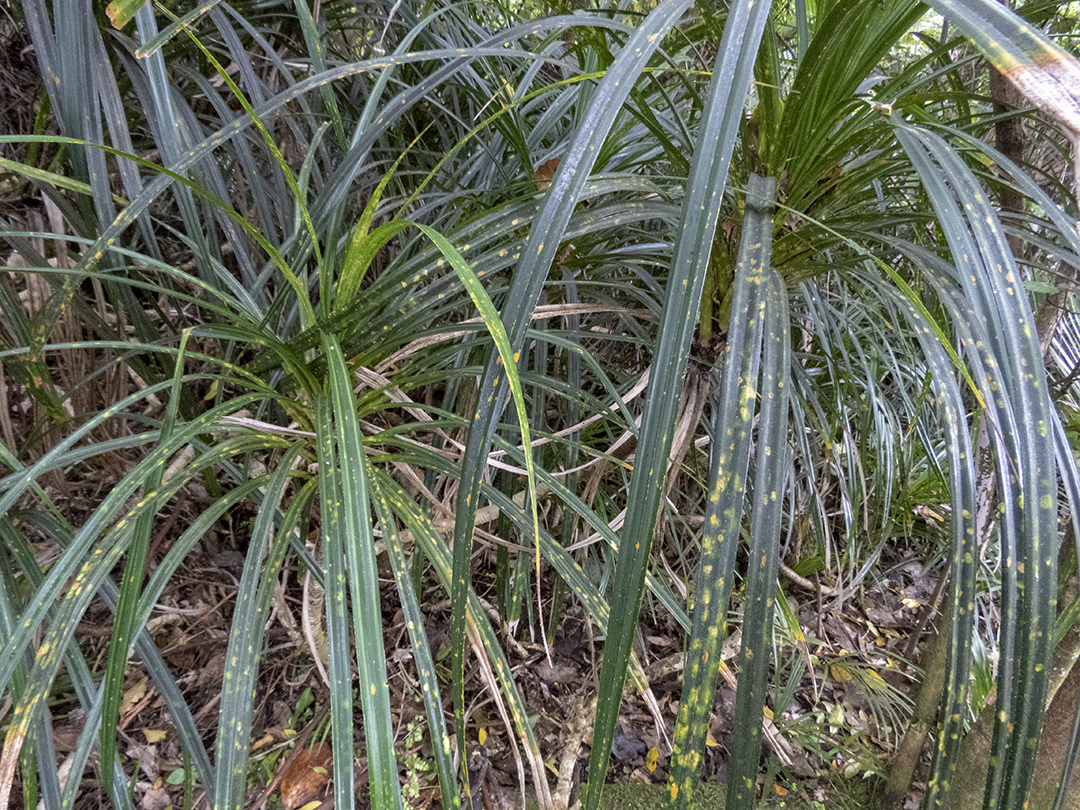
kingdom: Plantae
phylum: Tracheophyta
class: Liliopsida
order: Pandanales
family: Pandanaceae
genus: Freycinetia
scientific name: Freycinetia banksii
